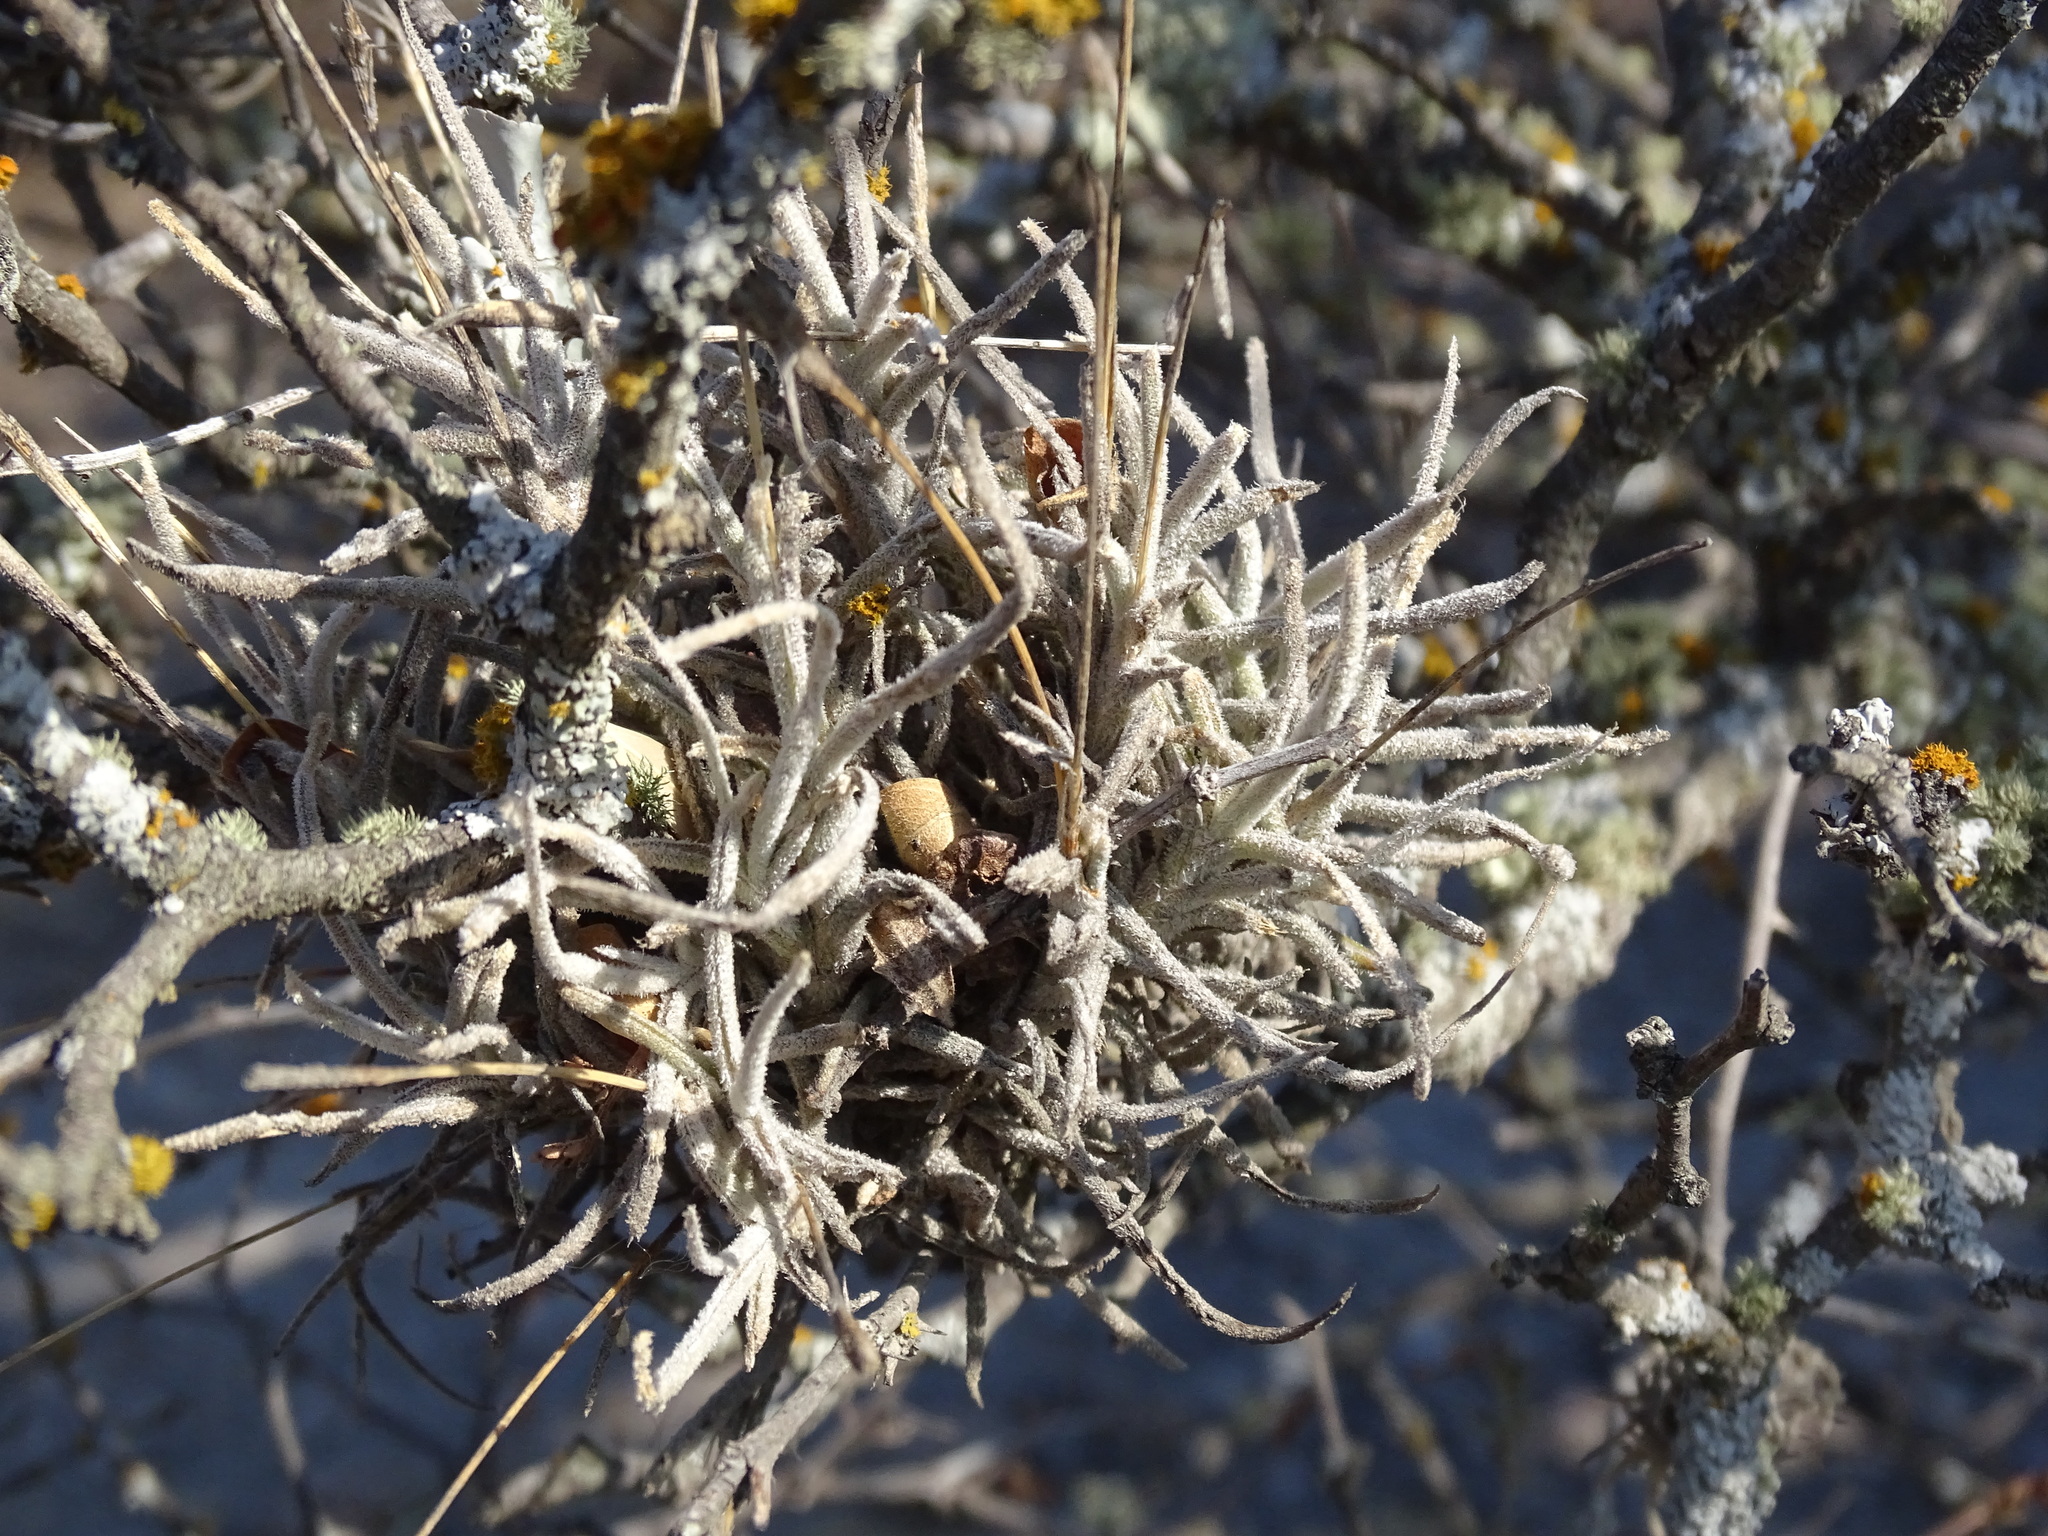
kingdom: Plantae
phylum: Tracheophyta
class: Liliopsida
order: Poales
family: Bromeliaceae
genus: Tillandsia
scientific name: Tillandsia recurvata
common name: Small ballmoss
